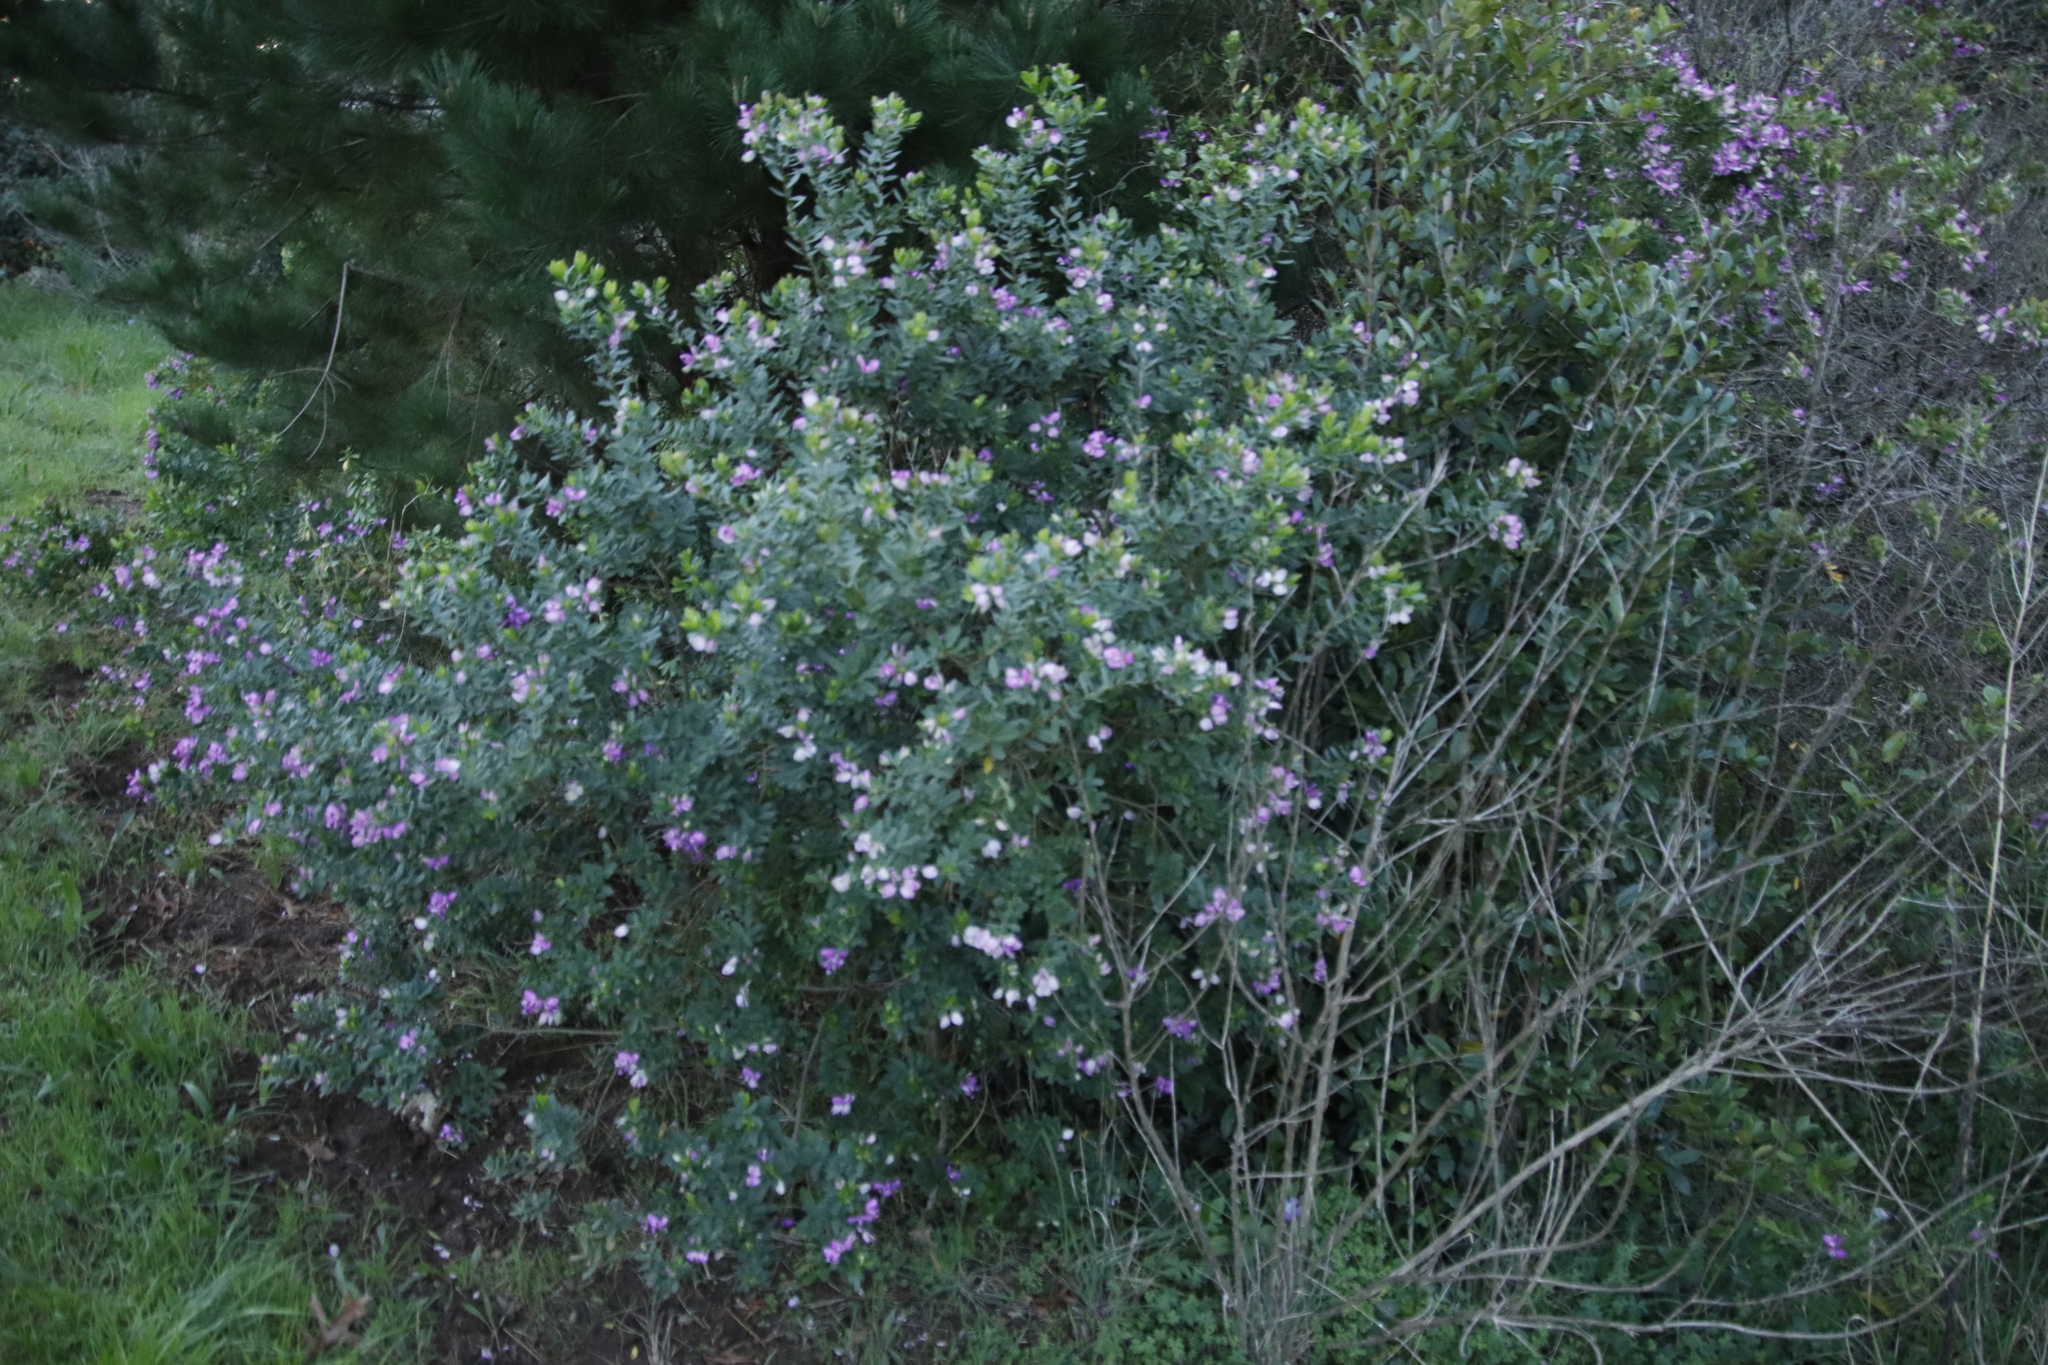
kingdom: Plantae
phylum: Tracheophyta
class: Magnoliopsida
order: Fabales
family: Polygalaceae
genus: Polygala
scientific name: Polygala myrtifolia
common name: Myrtle-leaf milkwort
